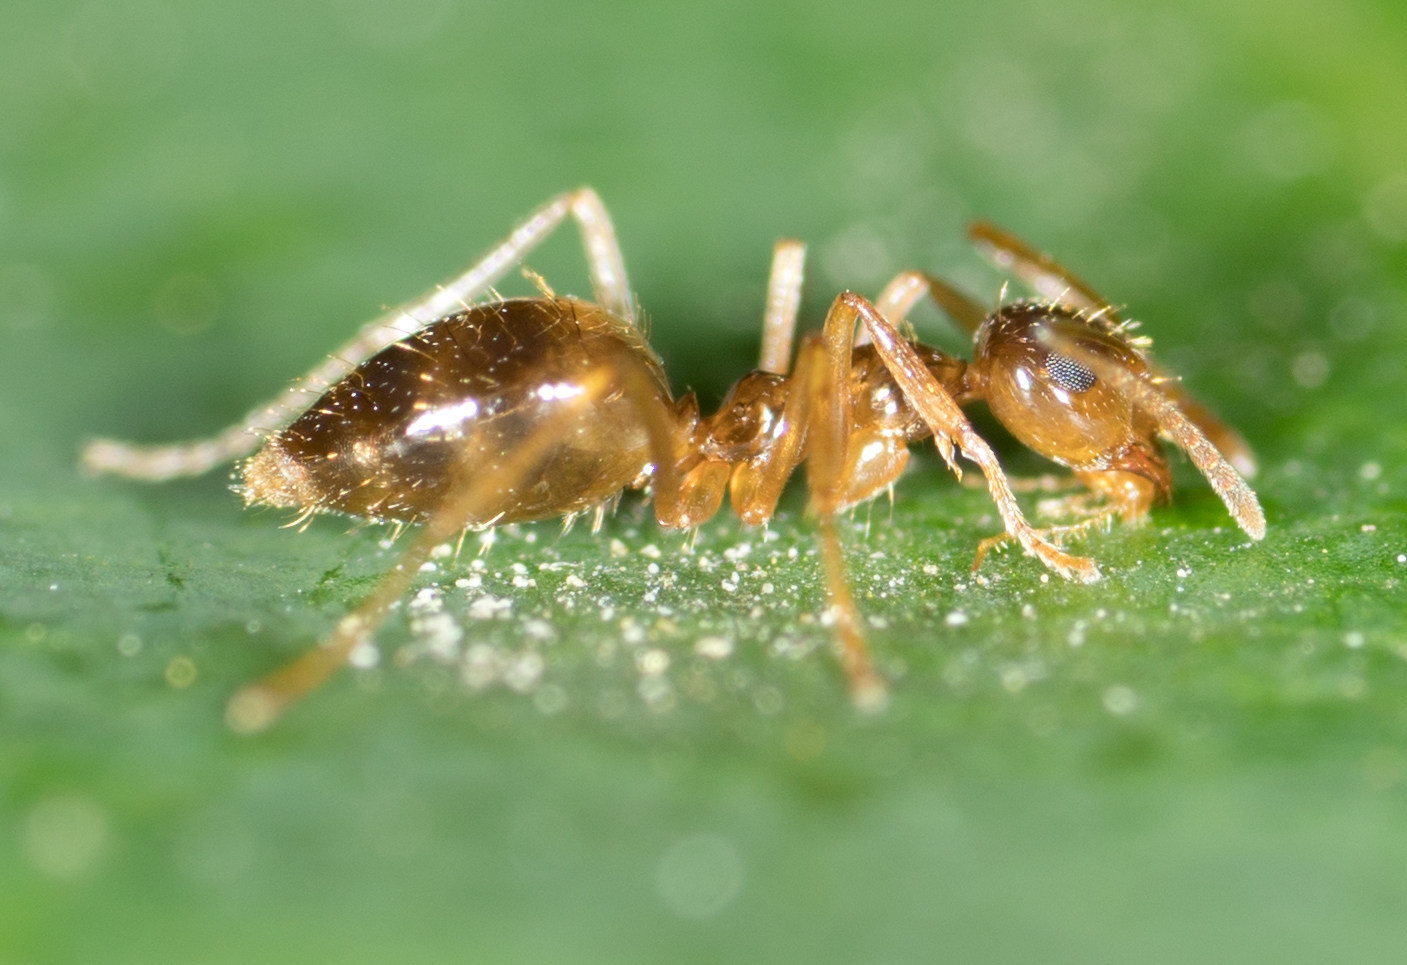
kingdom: Animalia
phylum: Arthropoda
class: Insecta
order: Hymenoptera
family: Formicidae
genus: Prenolepis
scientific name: Prenolepis imparis
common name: Small honey ant
